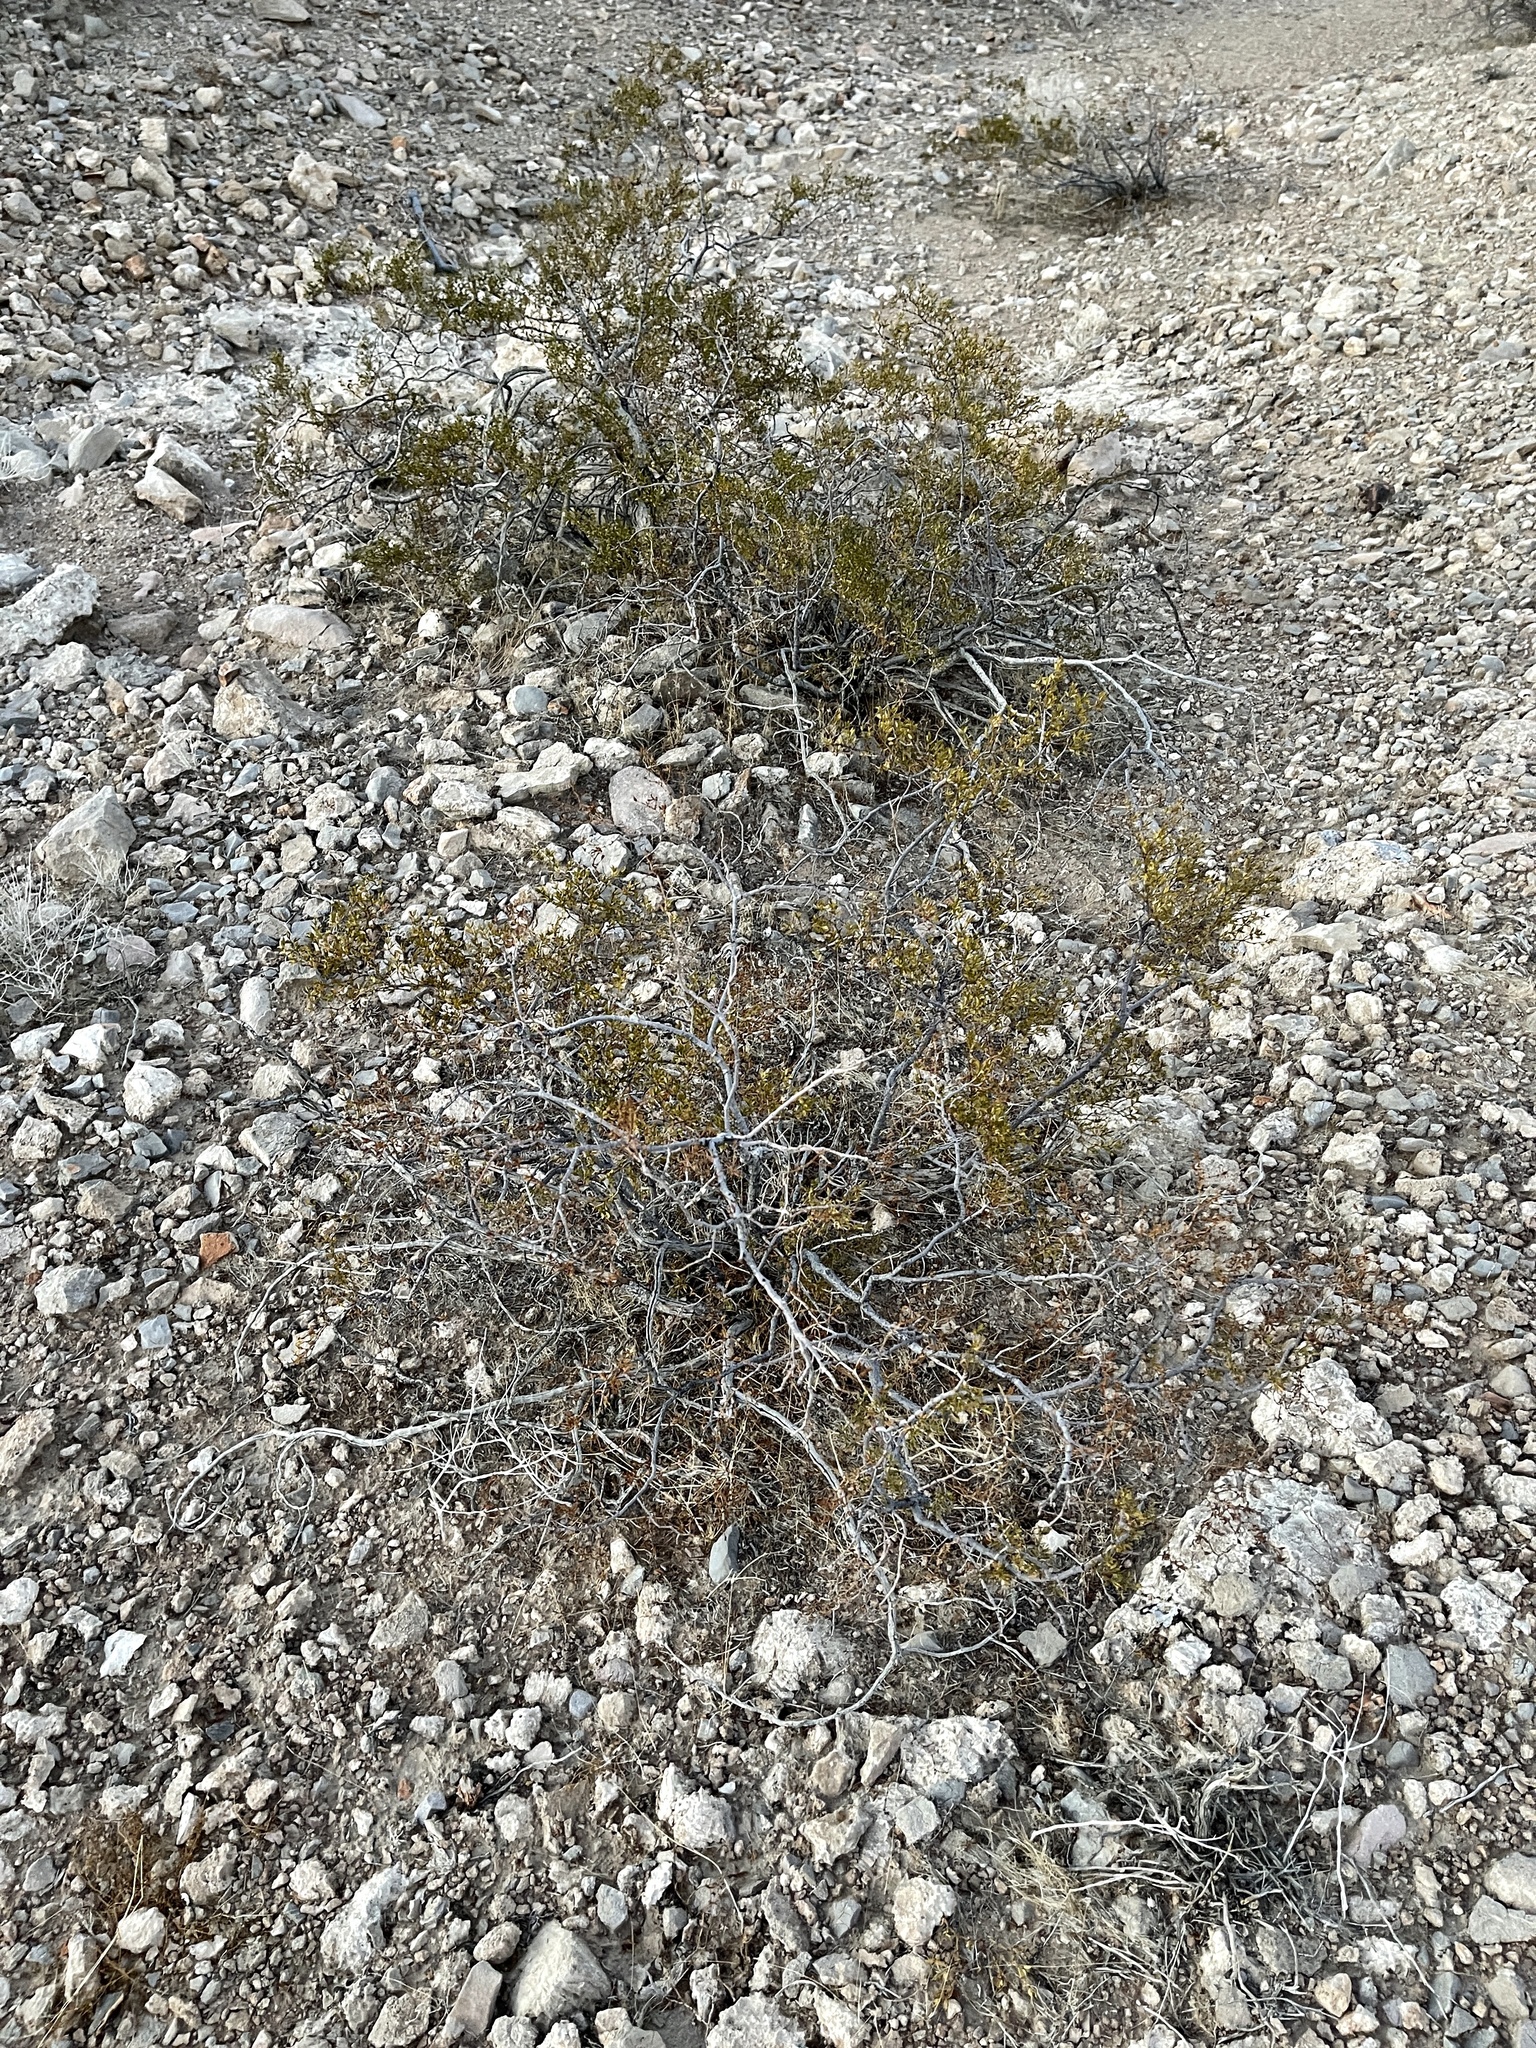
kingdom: Plantae
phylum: Tracheophyta
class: Magnoliopsida
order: Zygophyllales
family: Zygophyllaceae
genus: Larrea
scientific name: Larrea tridentata
